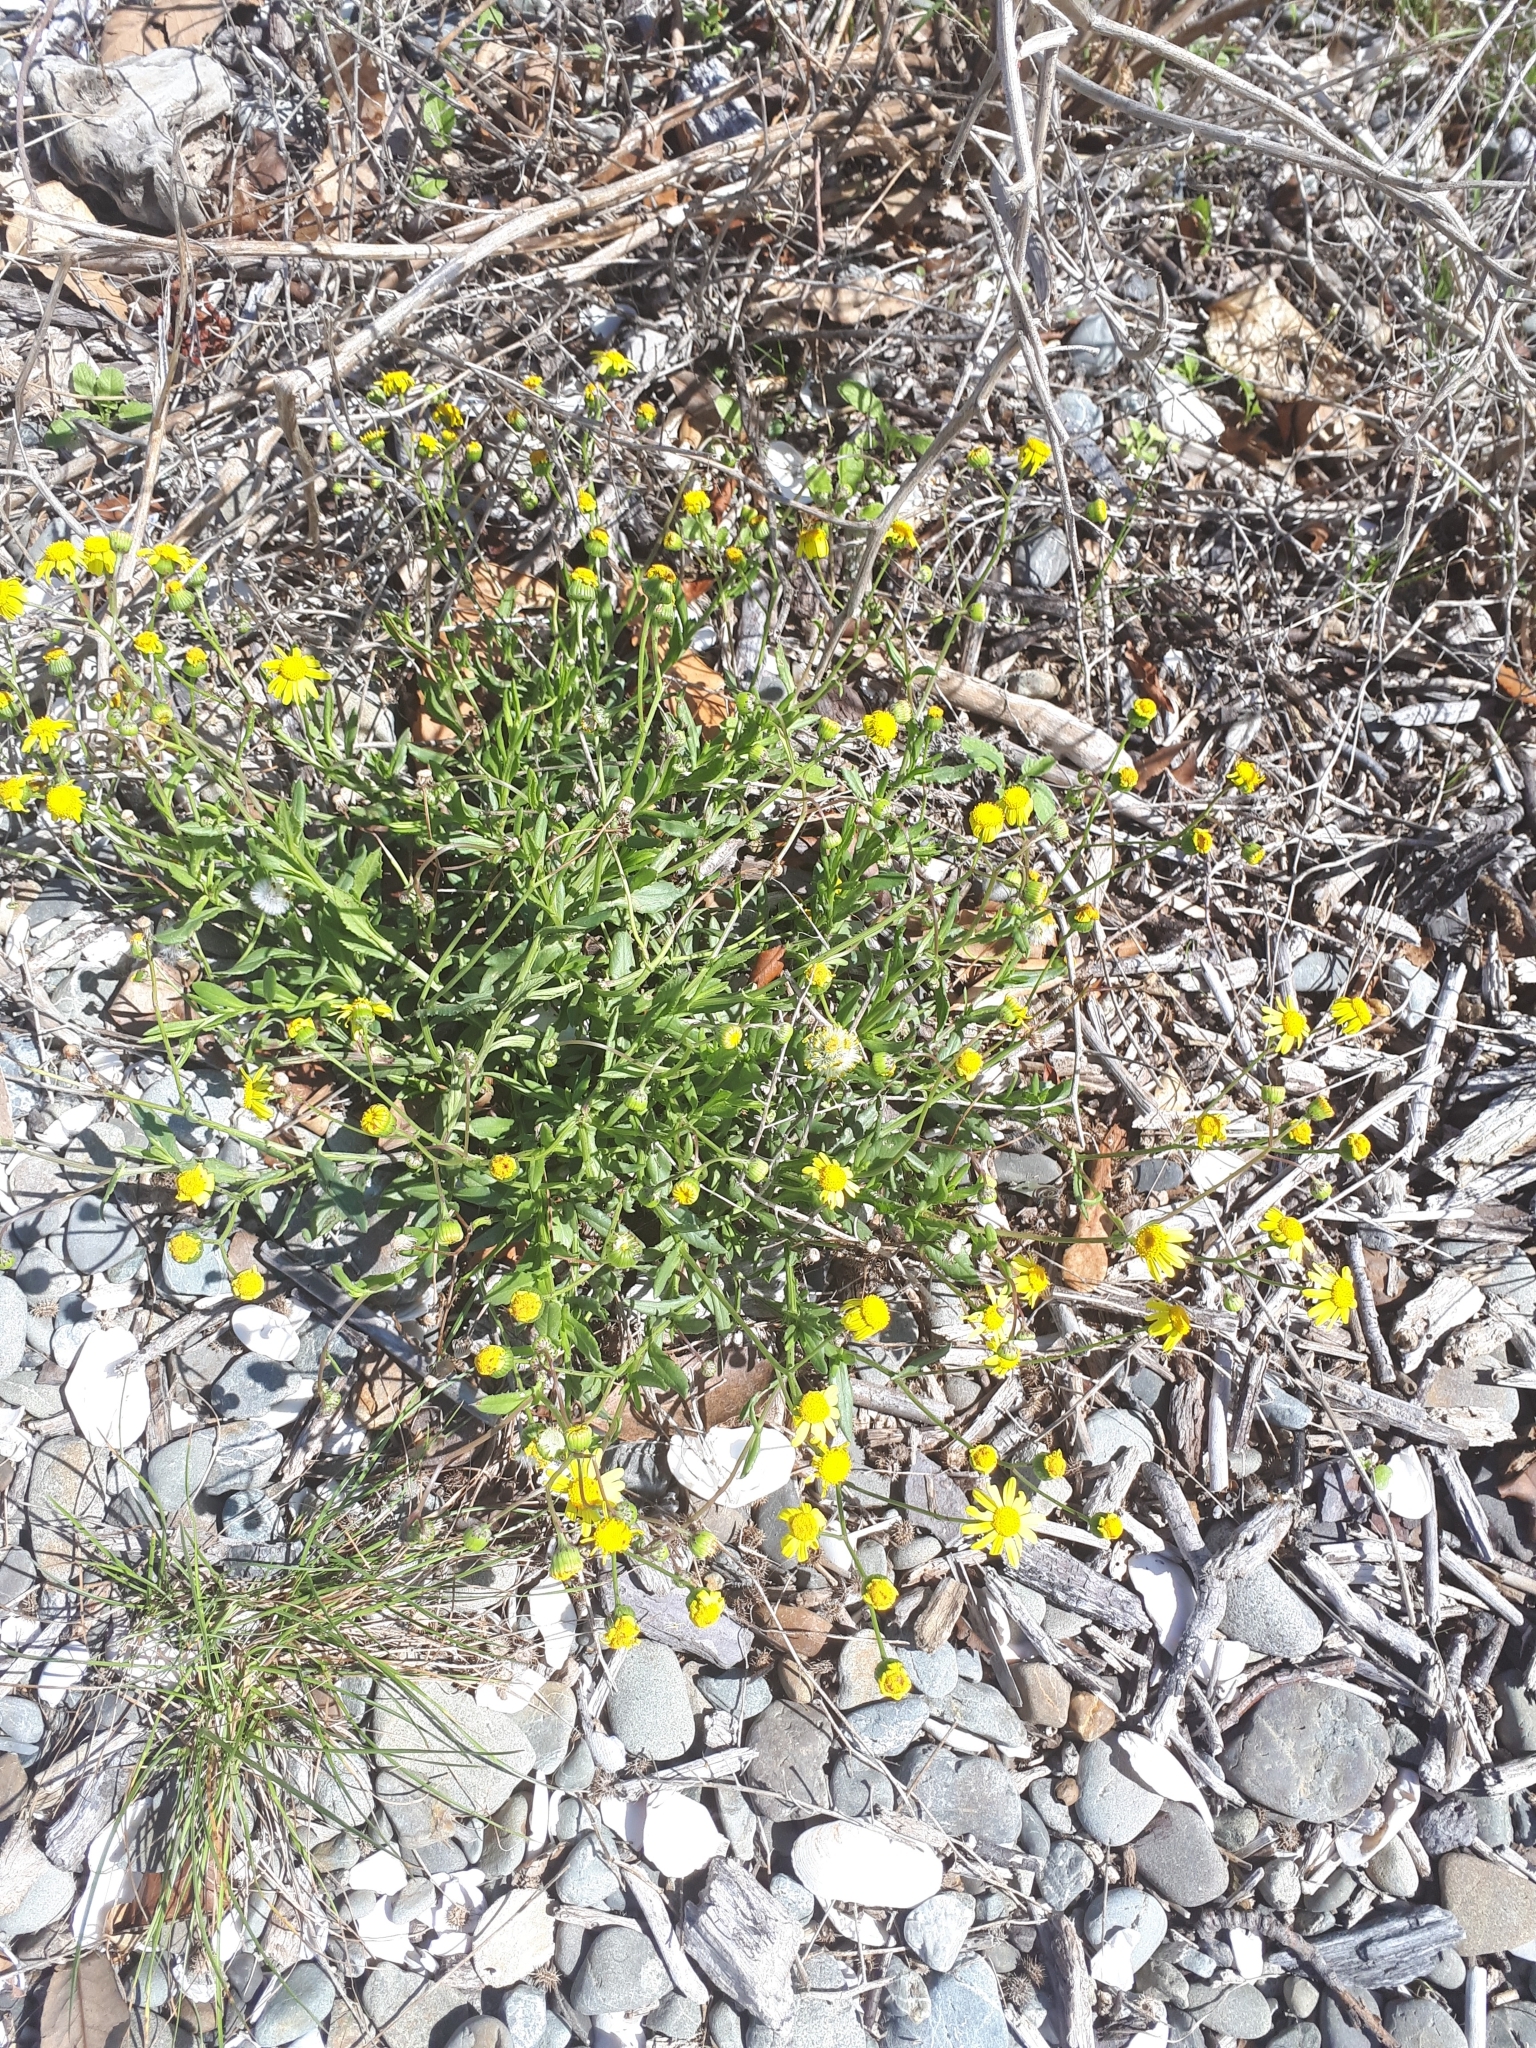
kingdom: Plantae
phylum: Tracheophyta
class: Magnoliopsida
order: Asterales
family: Asteraceae
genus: Senecio
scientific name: Senecio skirrhodon
